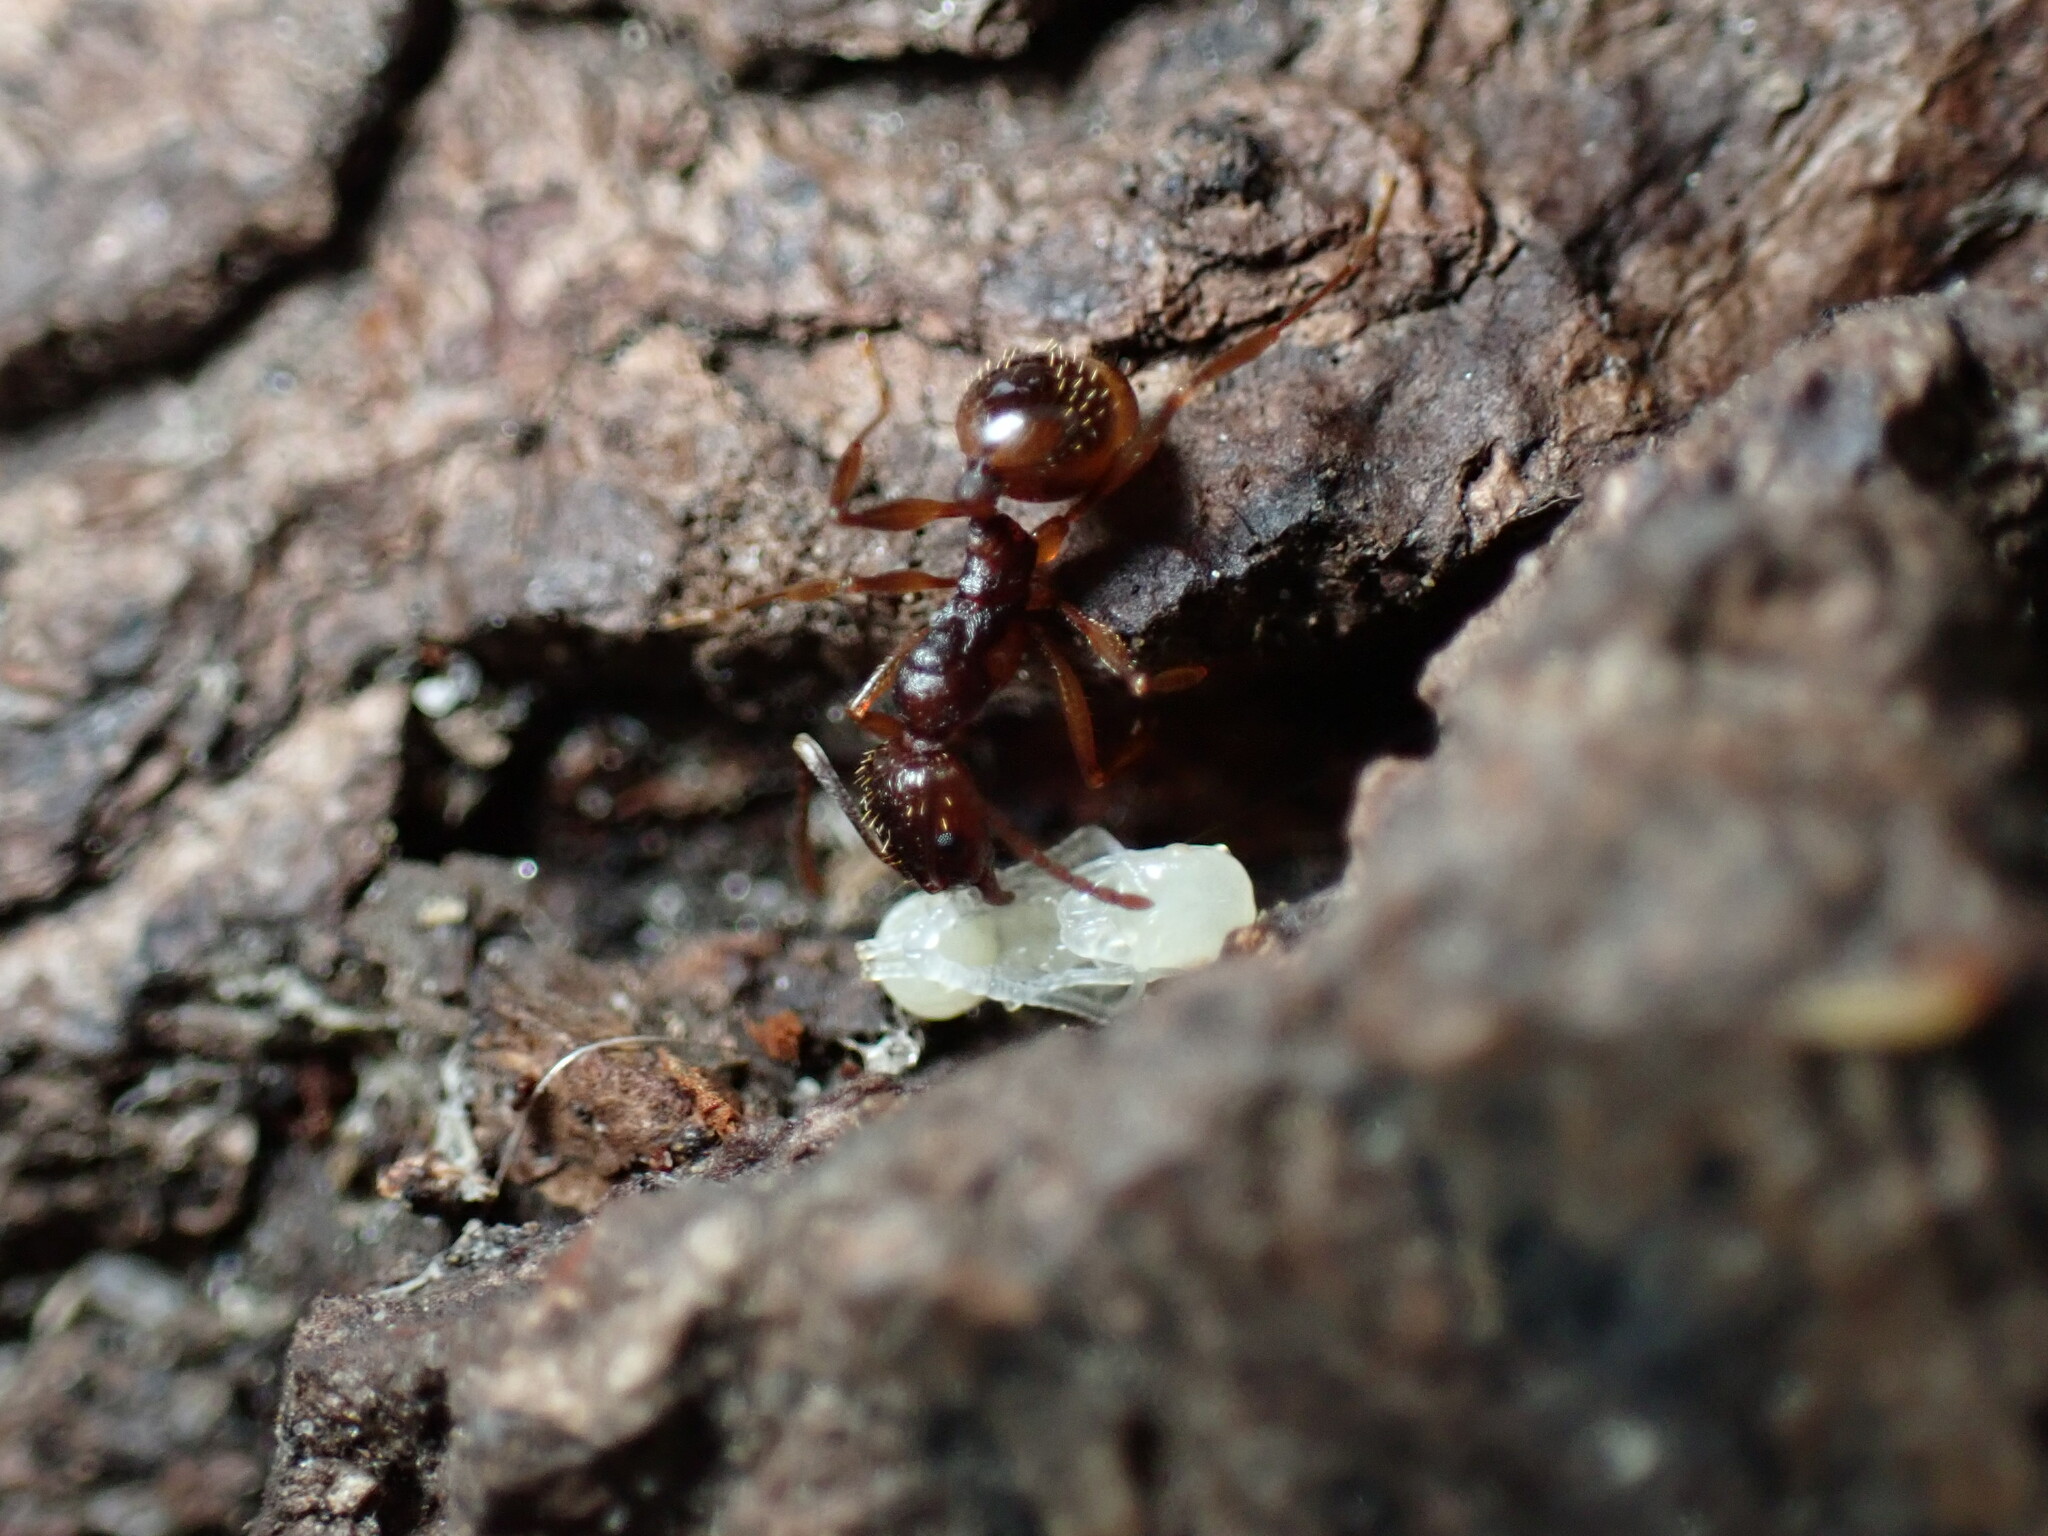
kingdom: Animalia
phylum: Arthropoda
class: Insecta
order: Hymenoptera
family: Formicidae
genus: Aphaenogaster
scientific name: Aphaenogaster rudis
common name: Winnow ant
